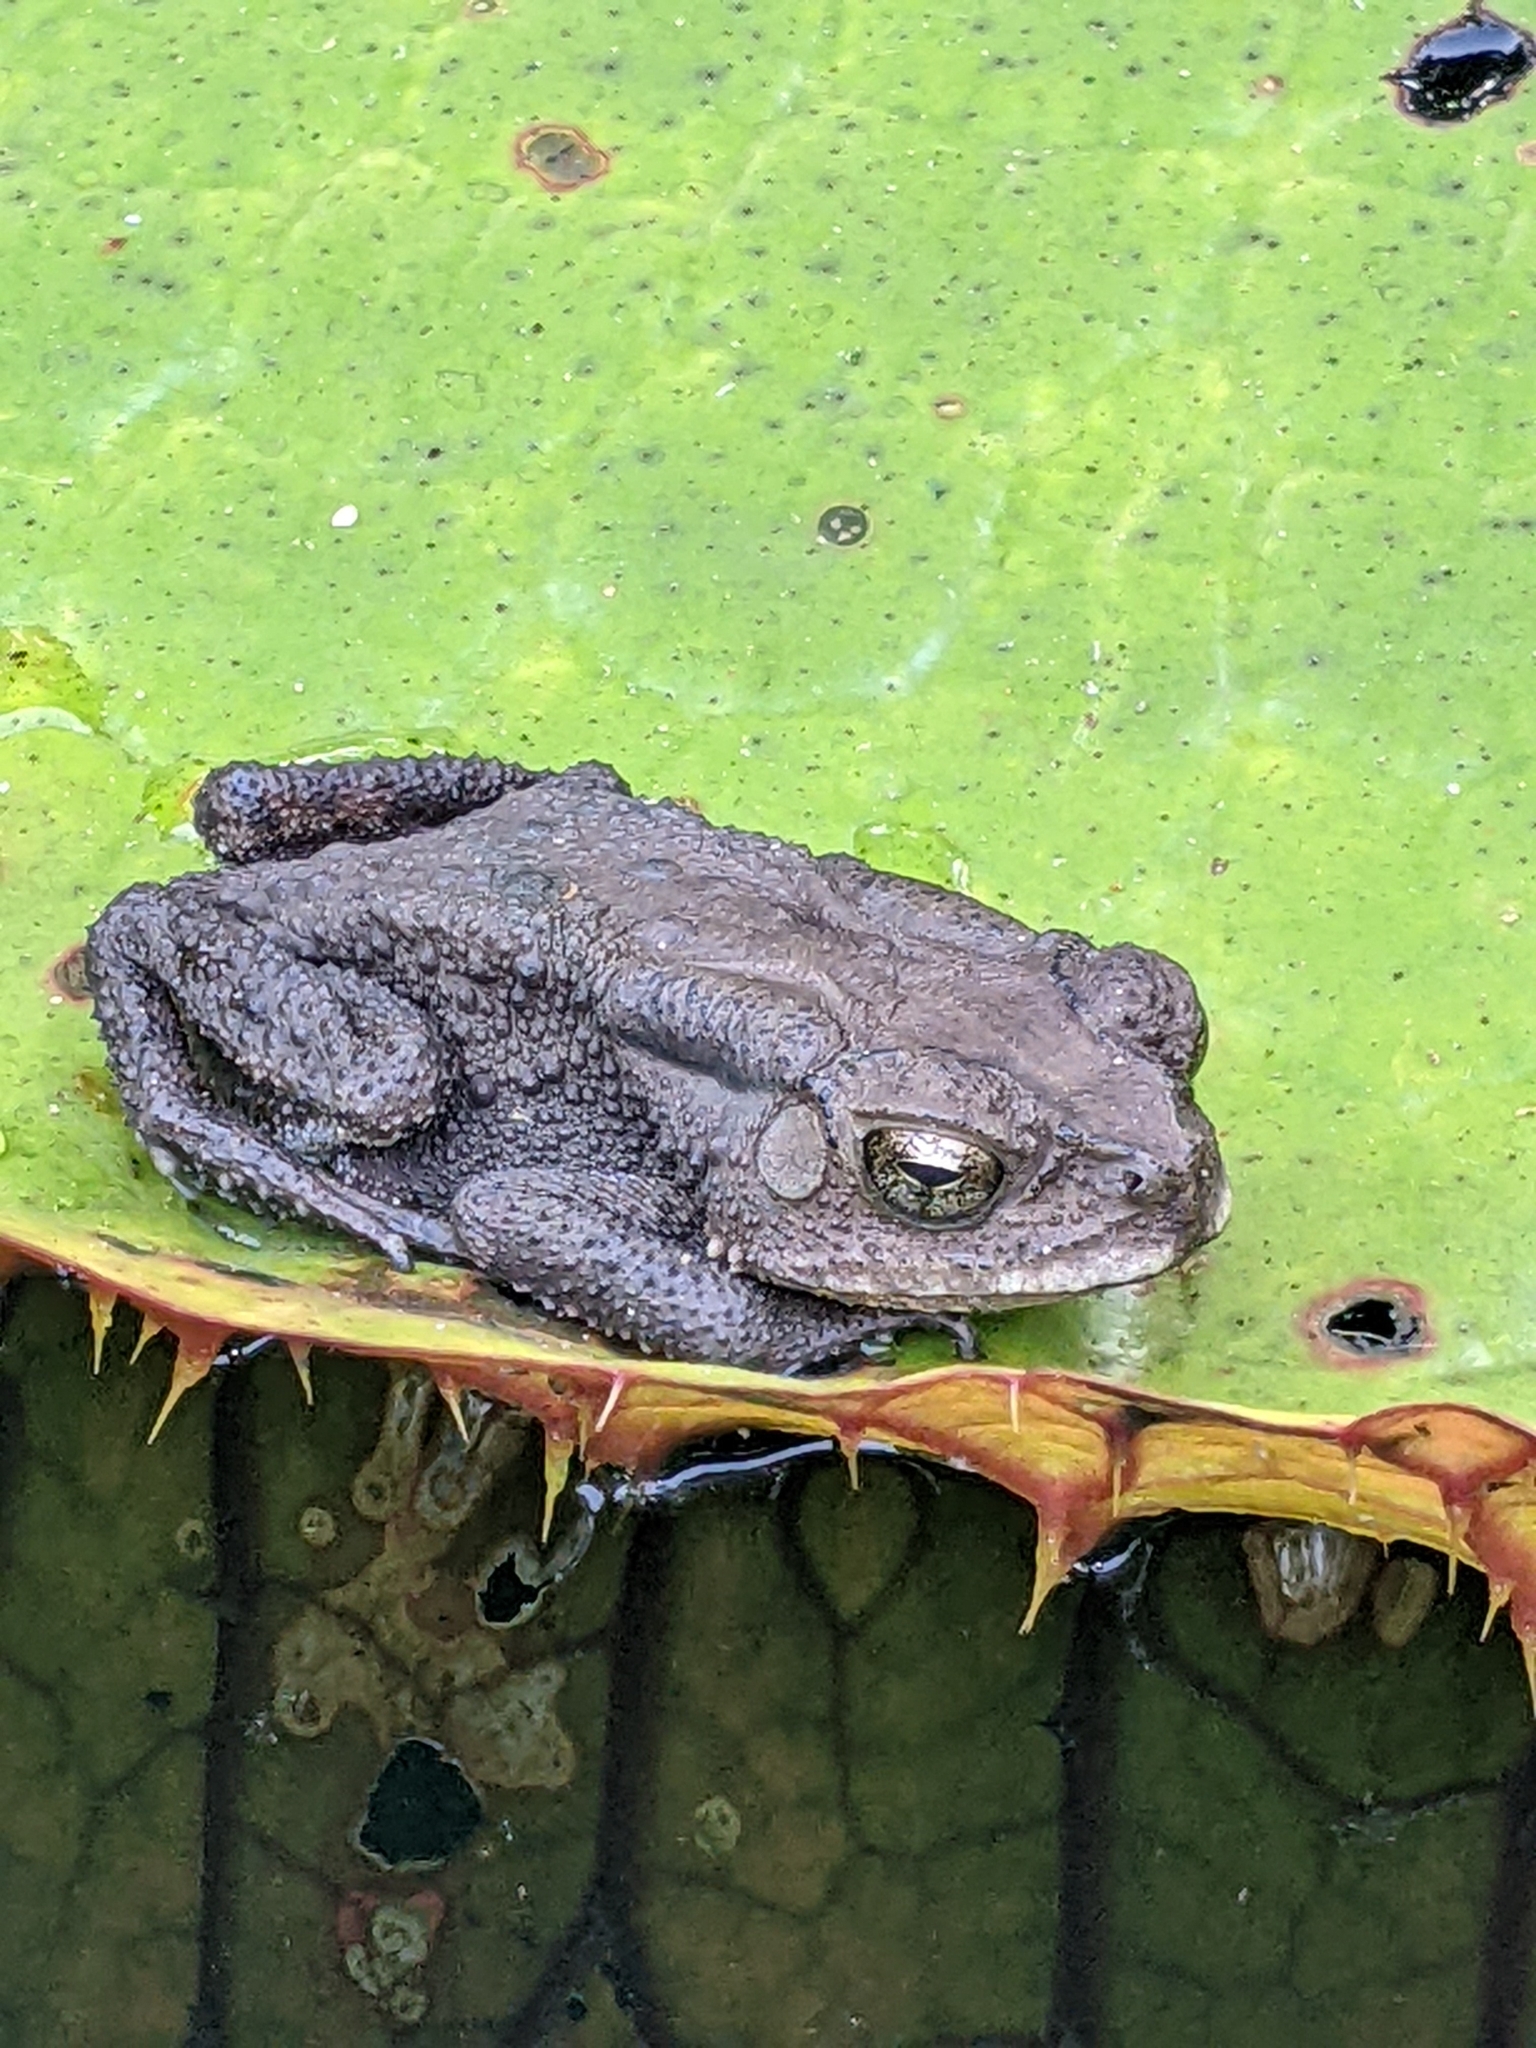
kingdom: Animalia
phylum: Chordata
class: Amphibia
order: Anura
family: Bufonidae
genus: Duttaphrynus
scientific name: Duttaphrynus melanostictus
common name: Common sunda toad
